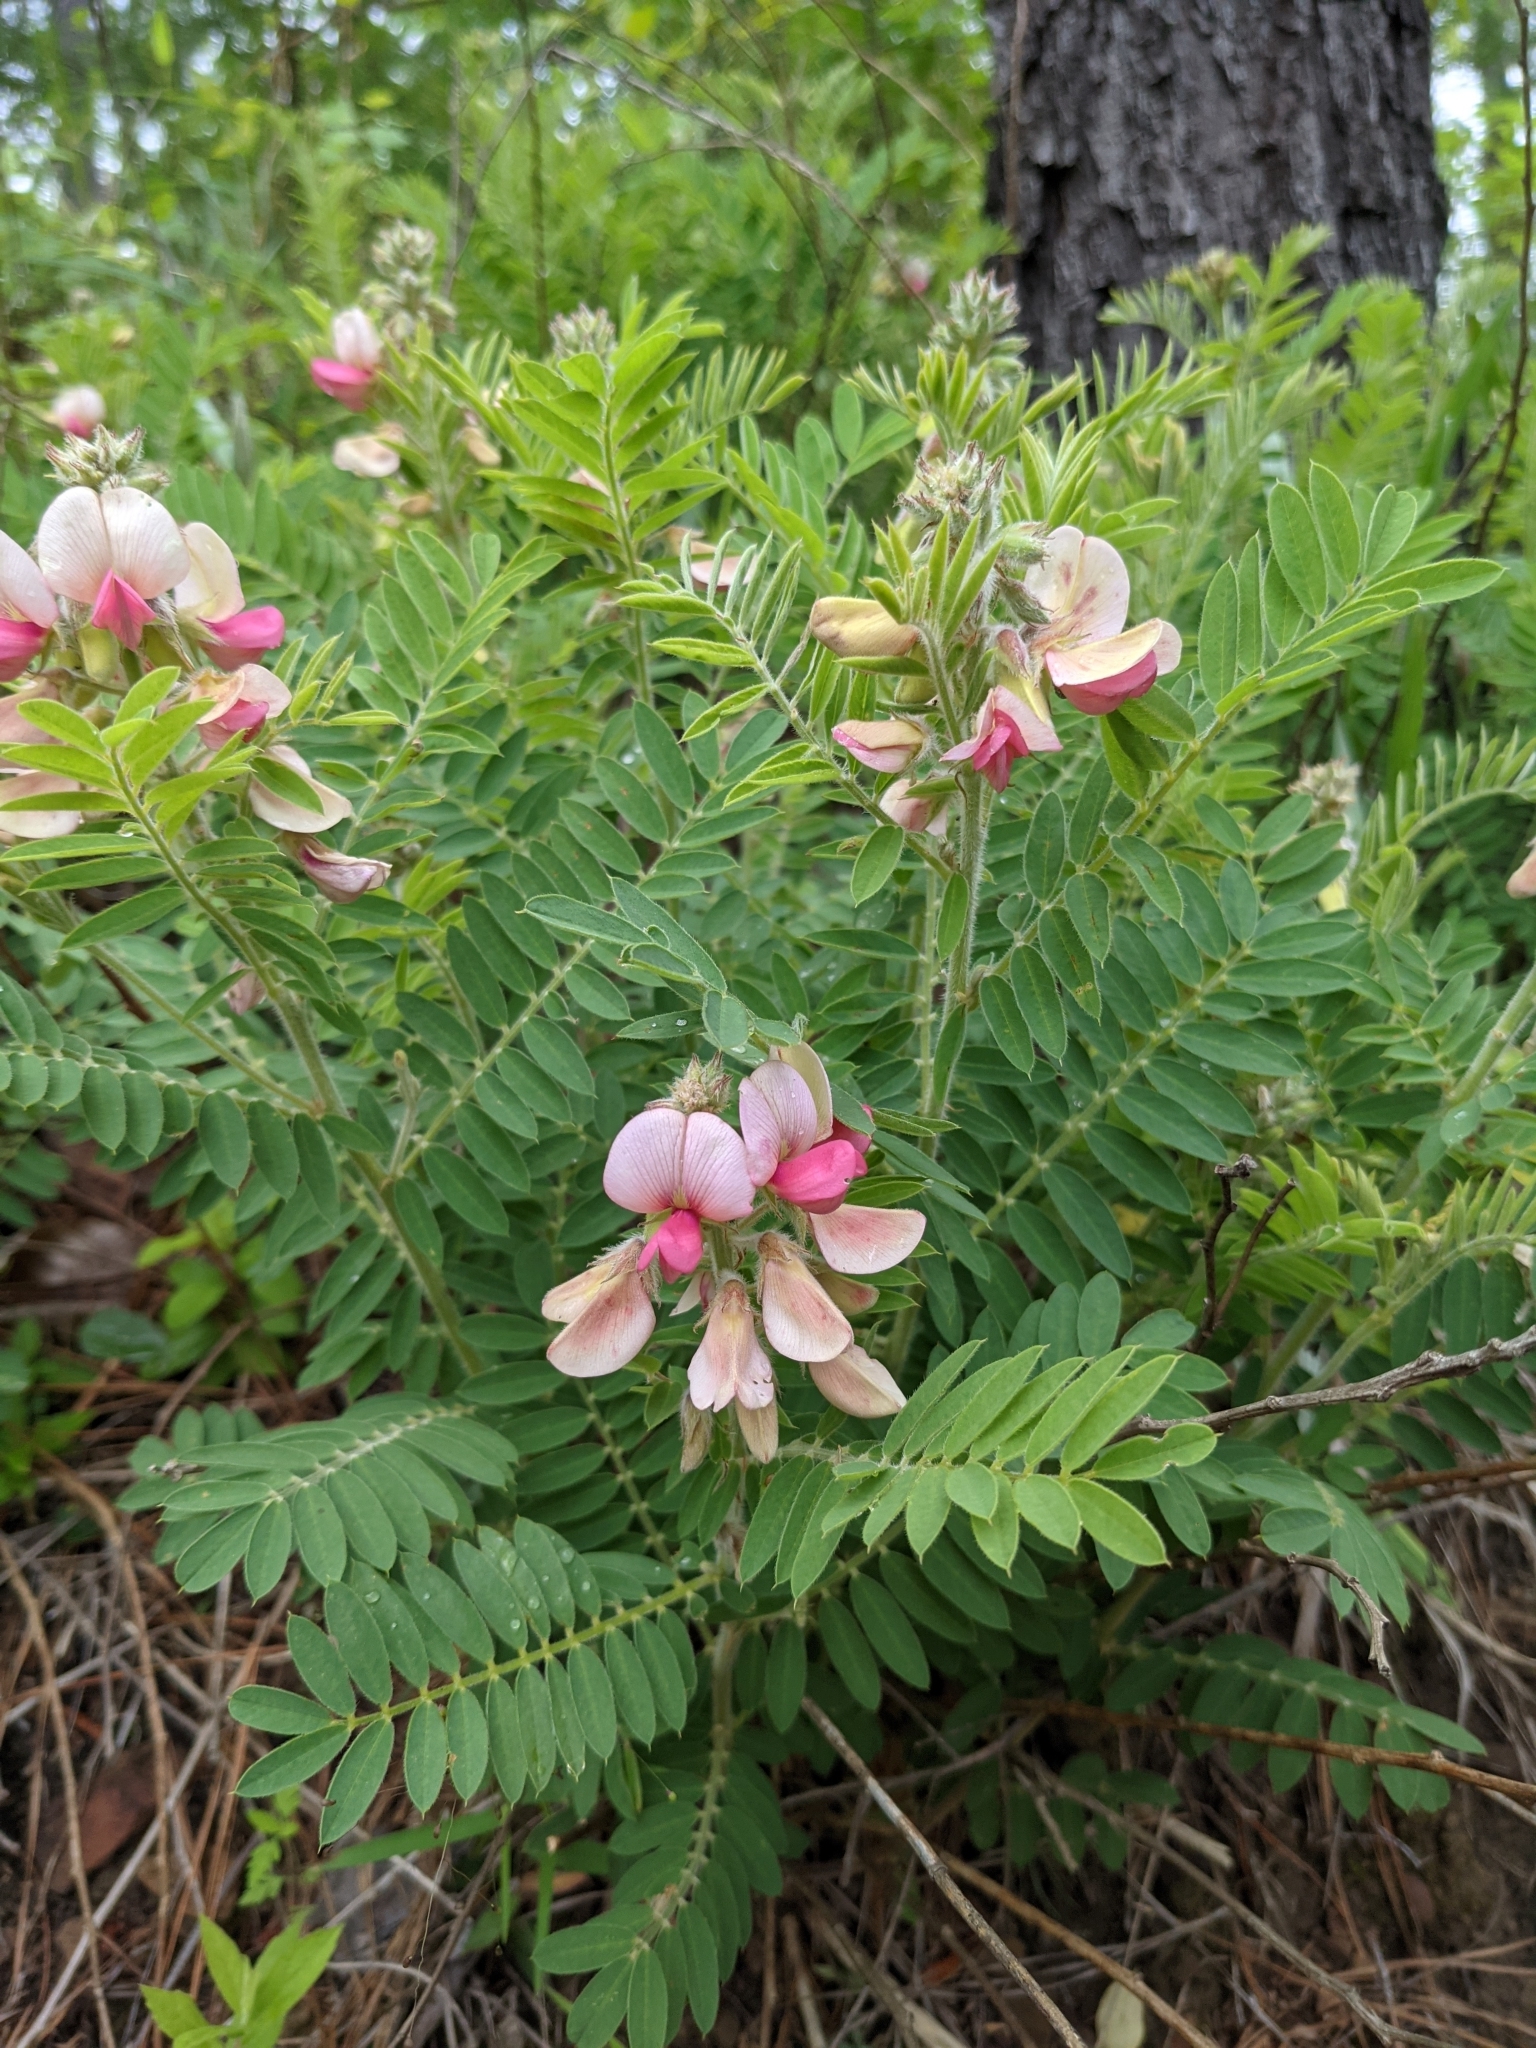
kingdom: Plantae
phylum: Tracheophyta
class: Magnoliopsida
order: Fabales
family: Fabaceae
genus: Tephrosia
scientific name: Tephrosia virginiana
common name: Rabbit-pea
